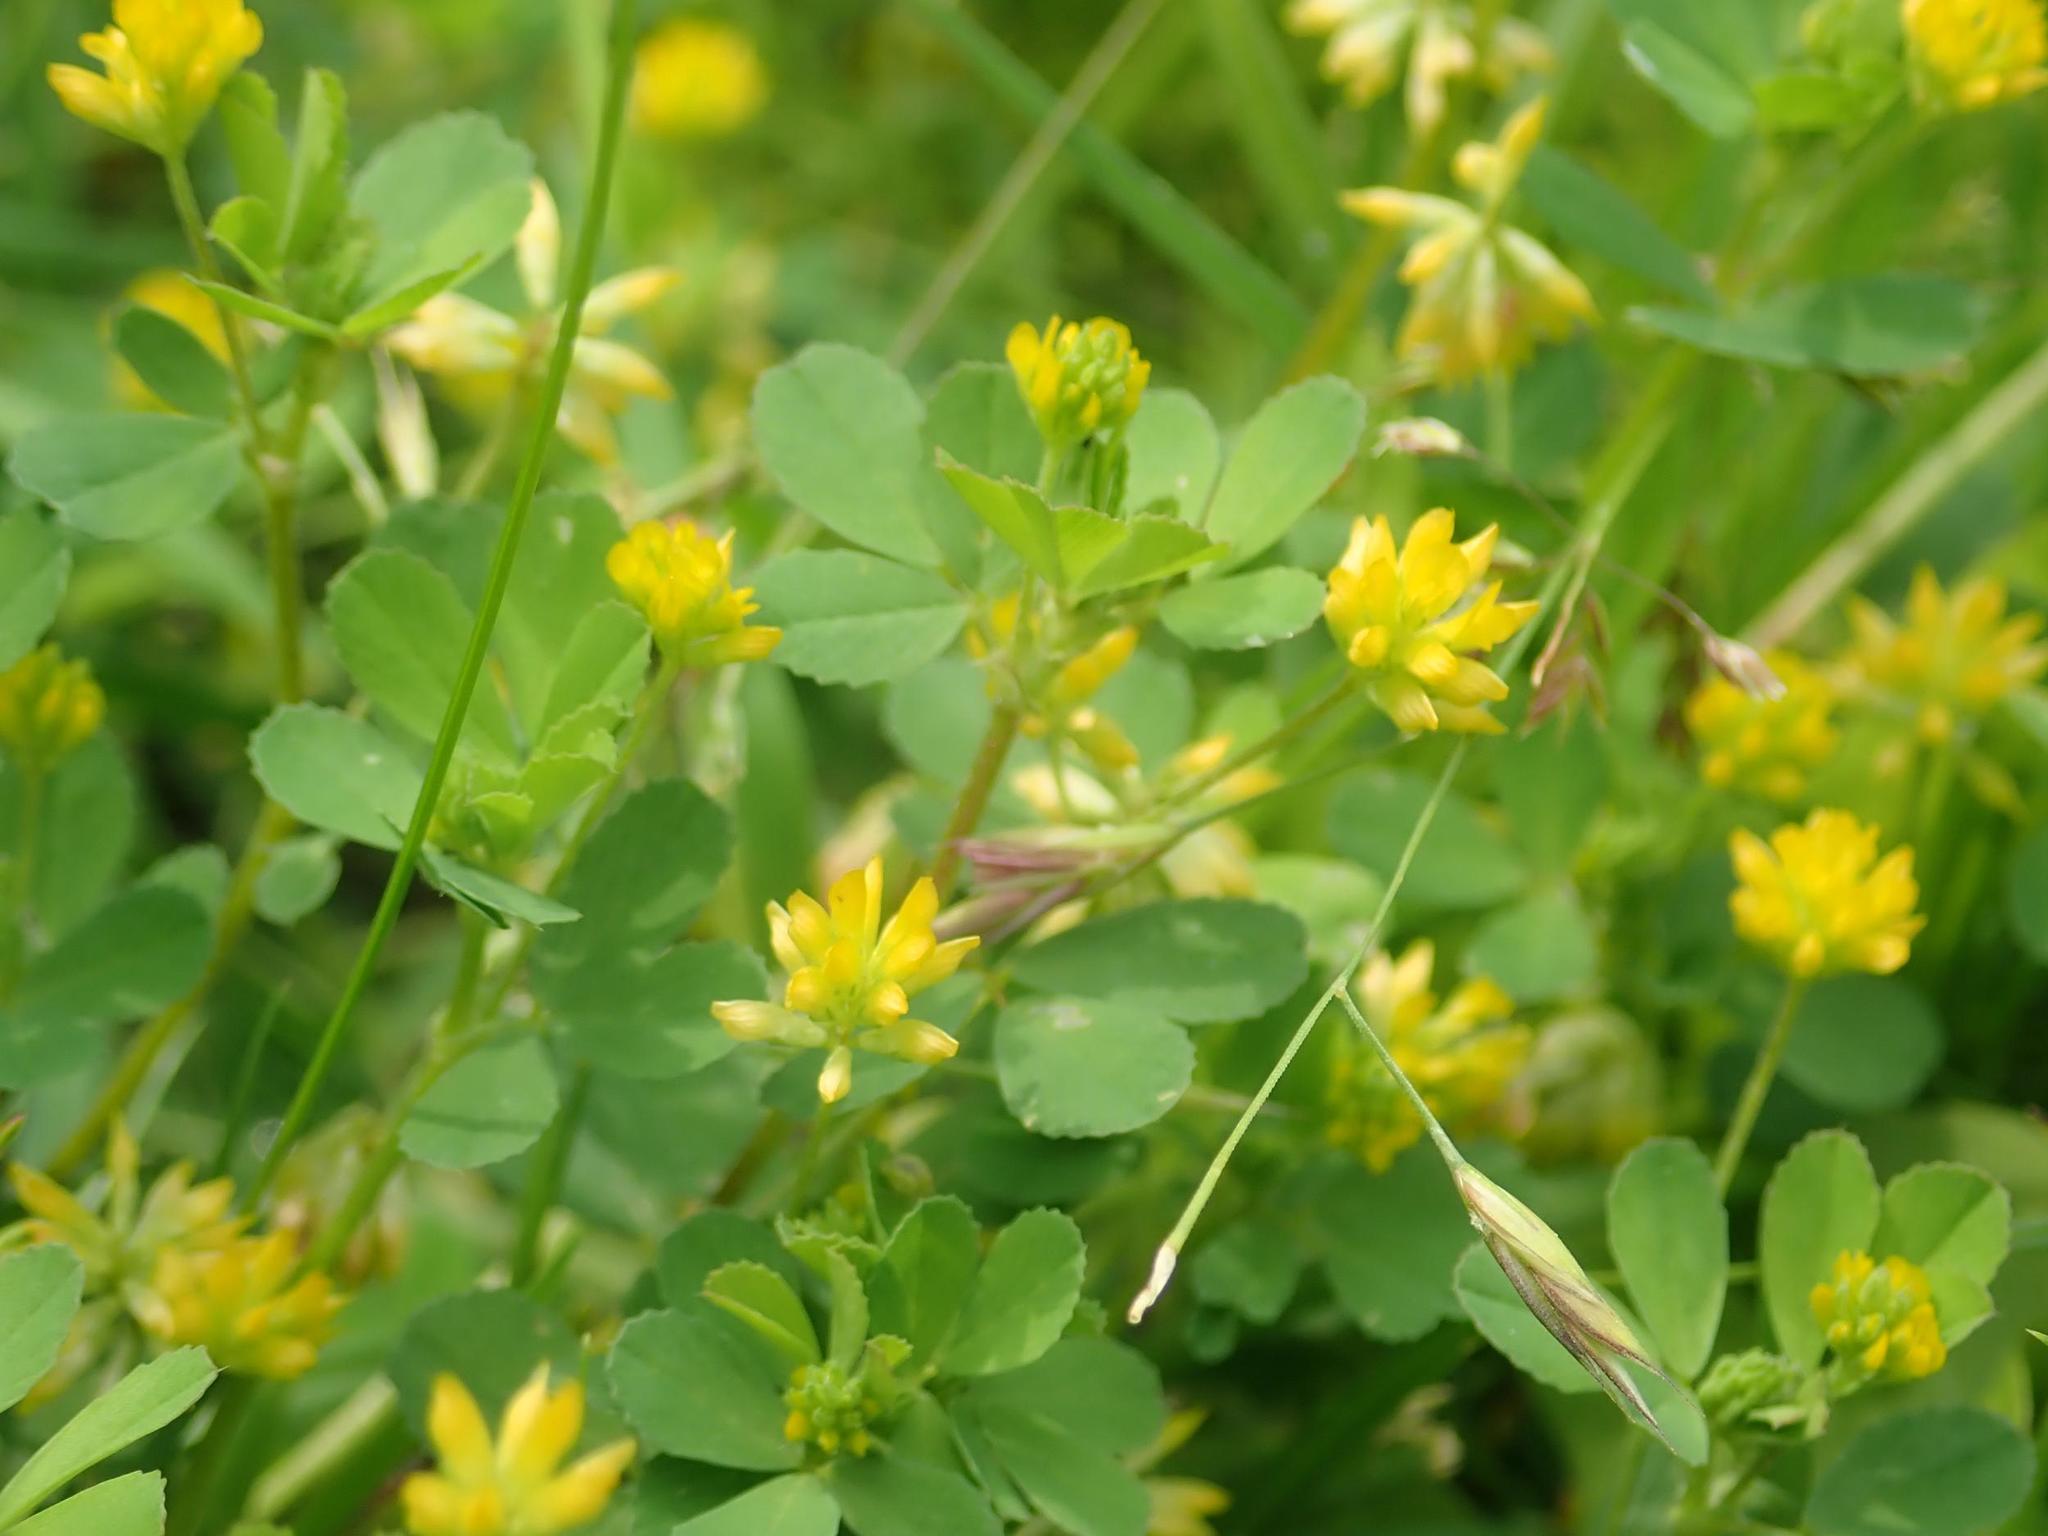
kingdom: Plantae
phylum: Tracheophyta
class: Magnoliopsida
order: Fabales
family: Fabaceae
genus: Trifolium
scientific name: Trifolium dubium
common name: Suckling clover
